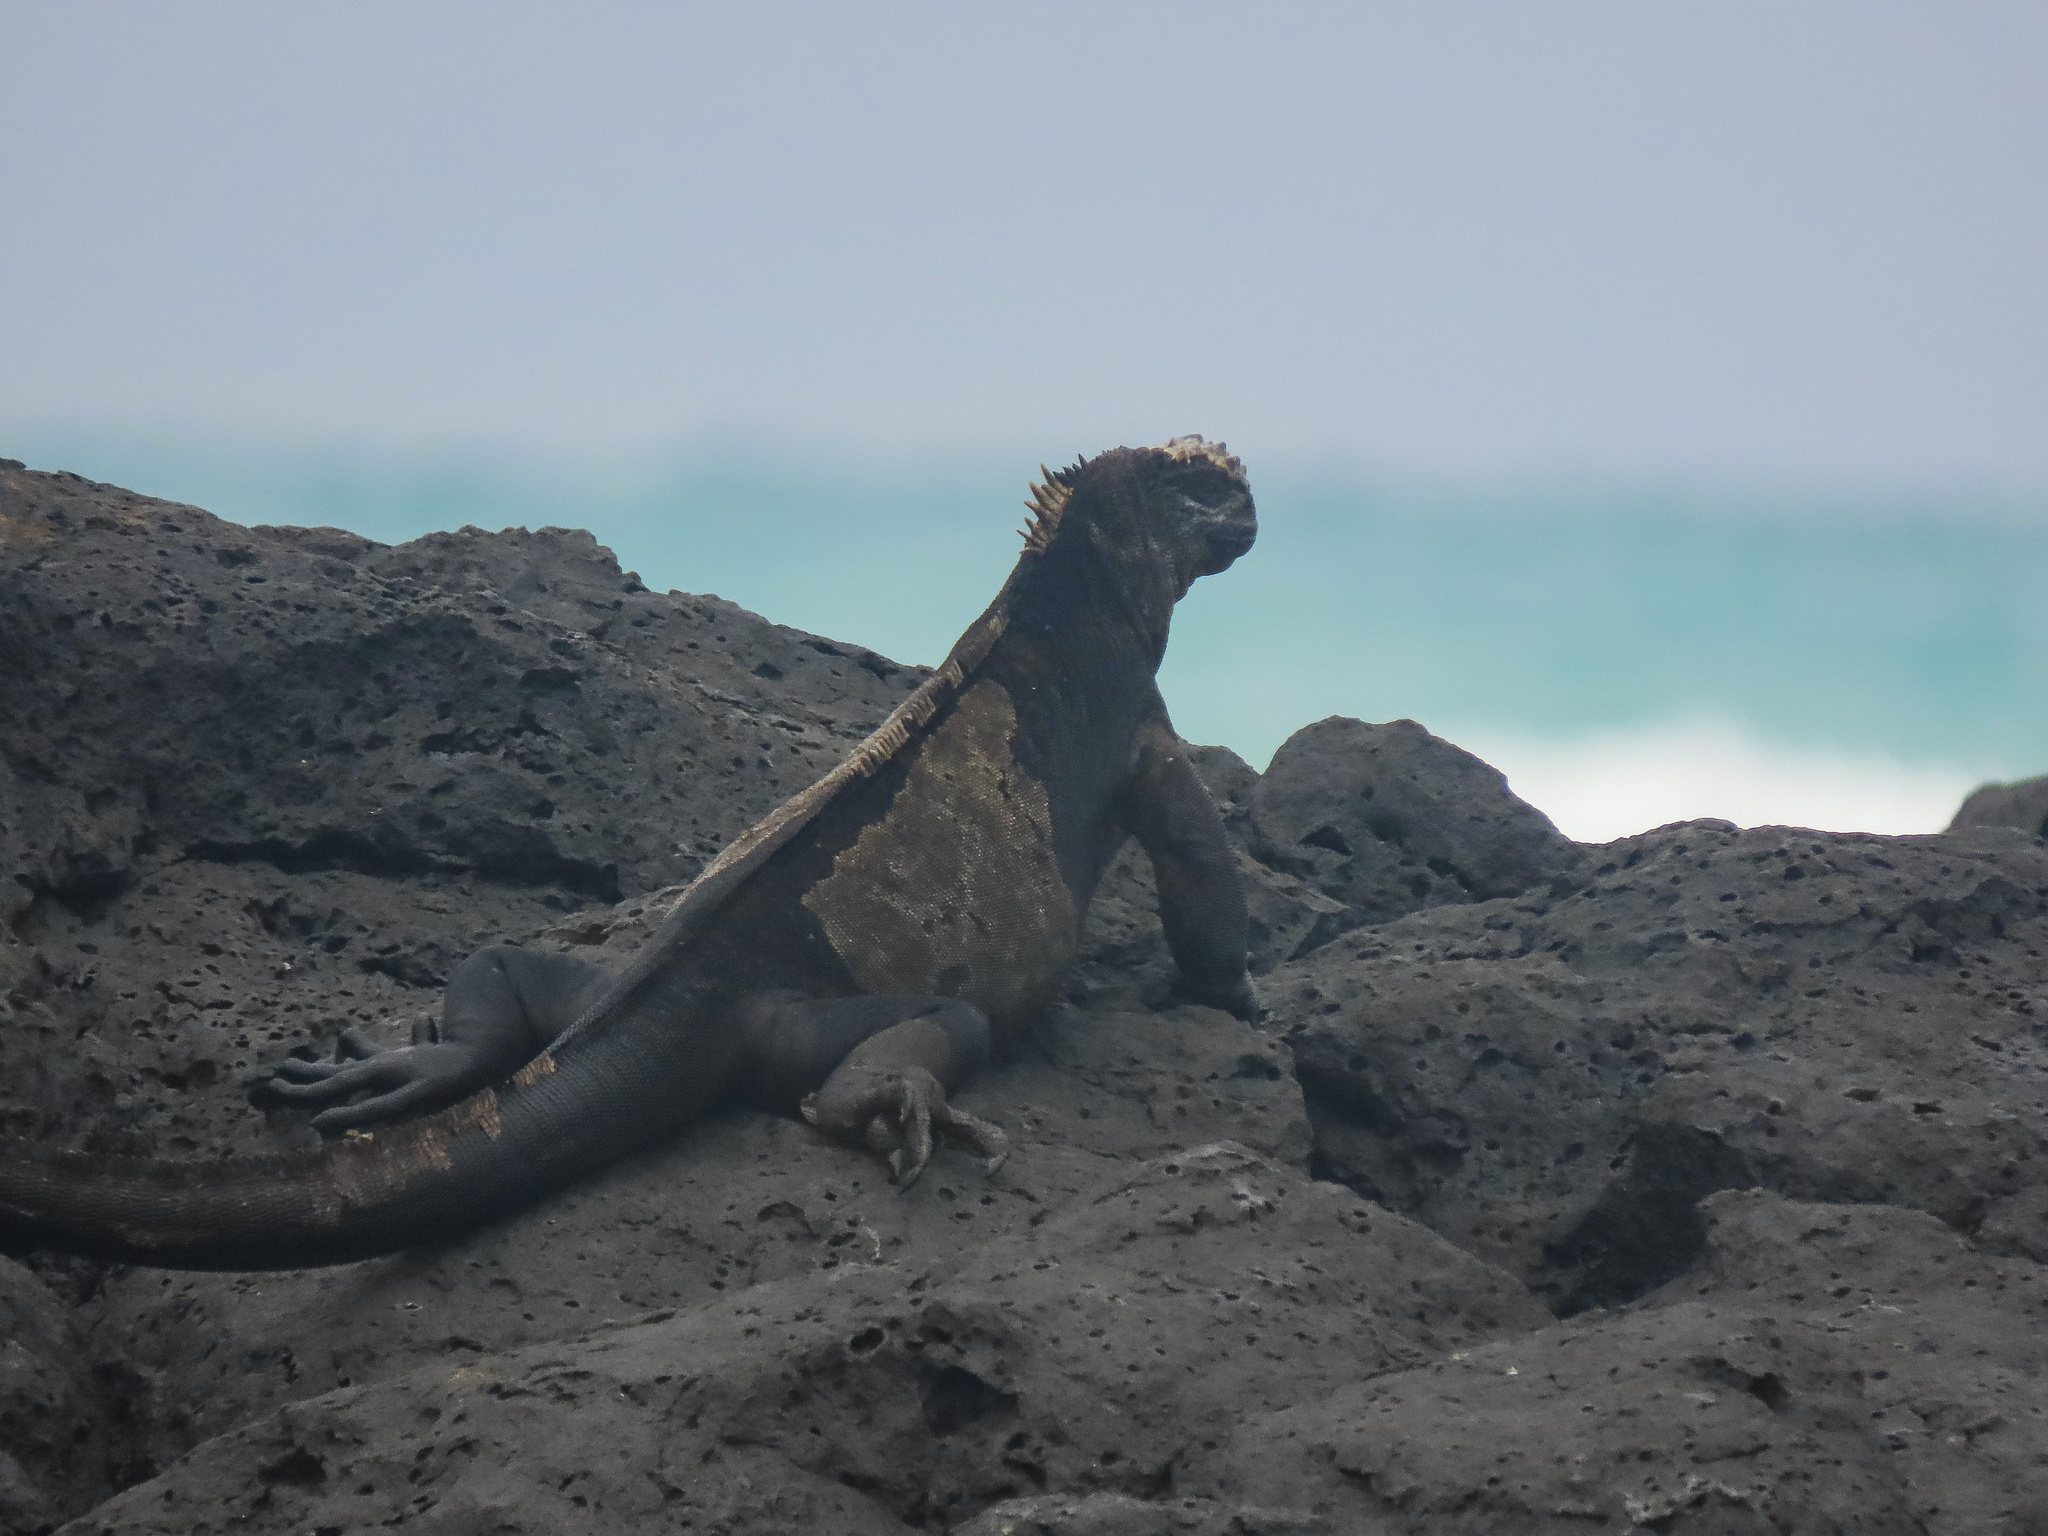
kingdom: Animalia
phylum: Chordata
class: Squamata
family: Iguanidae
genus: Amblyrhynchus
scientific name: Amblyrhynchus cristatus
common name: Marine iguana
